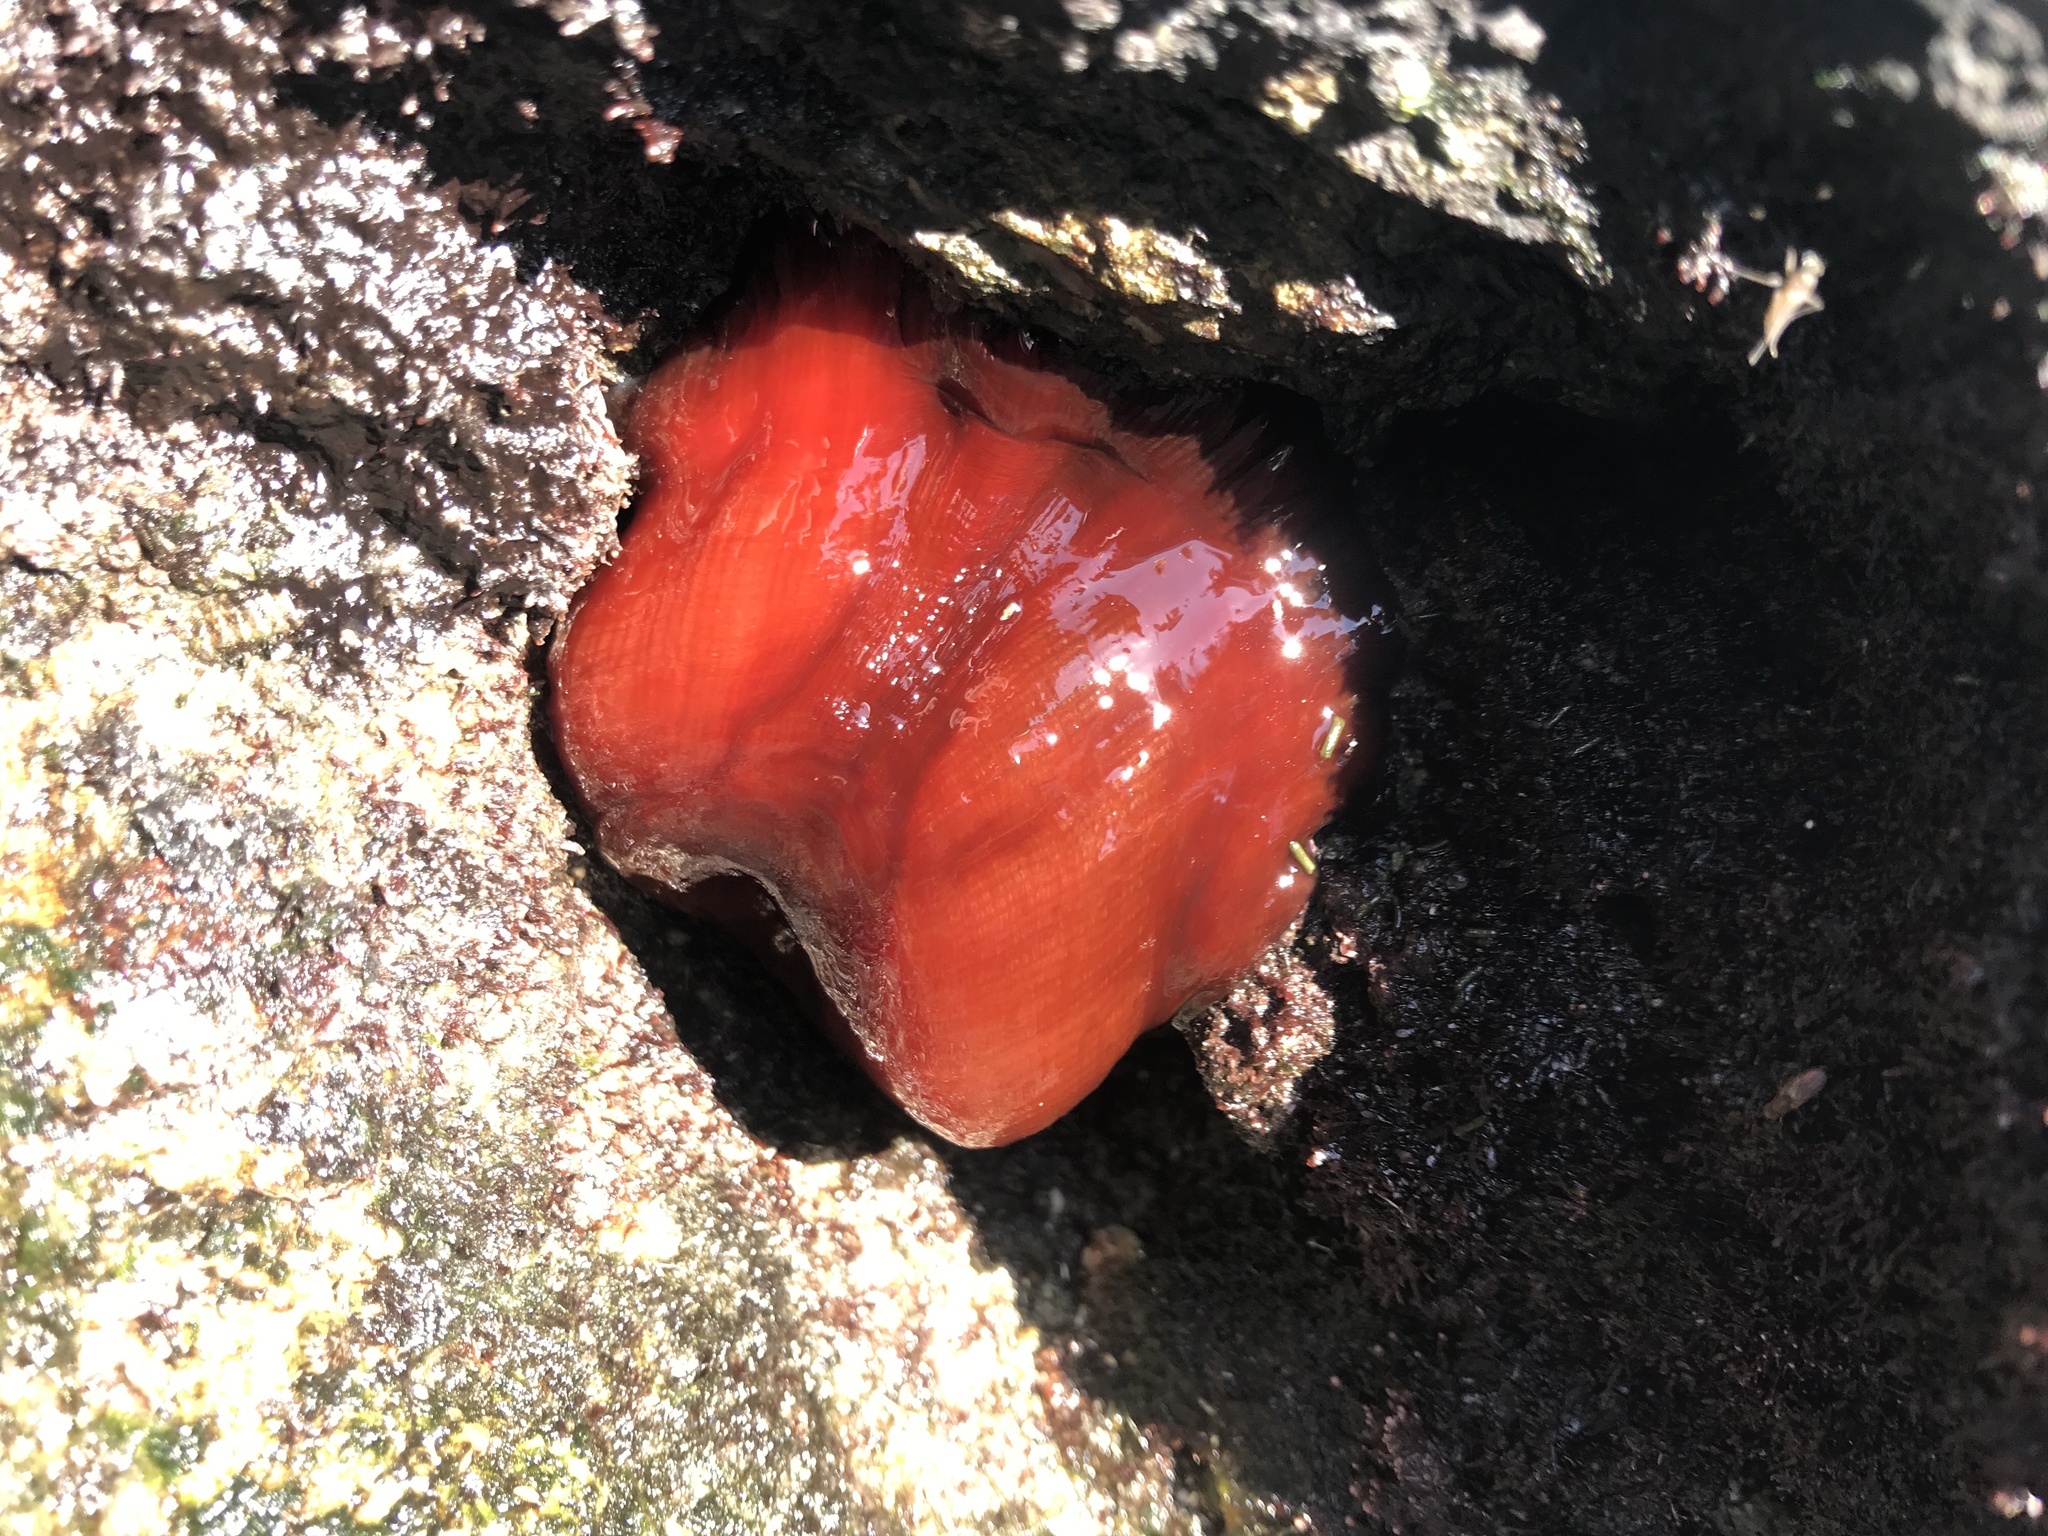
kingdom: Animalia
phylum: Cnidaria
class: Anthozoa
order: Actiniaria
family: Actiniidae
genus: Actinia
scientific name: Actinia mediterranea
